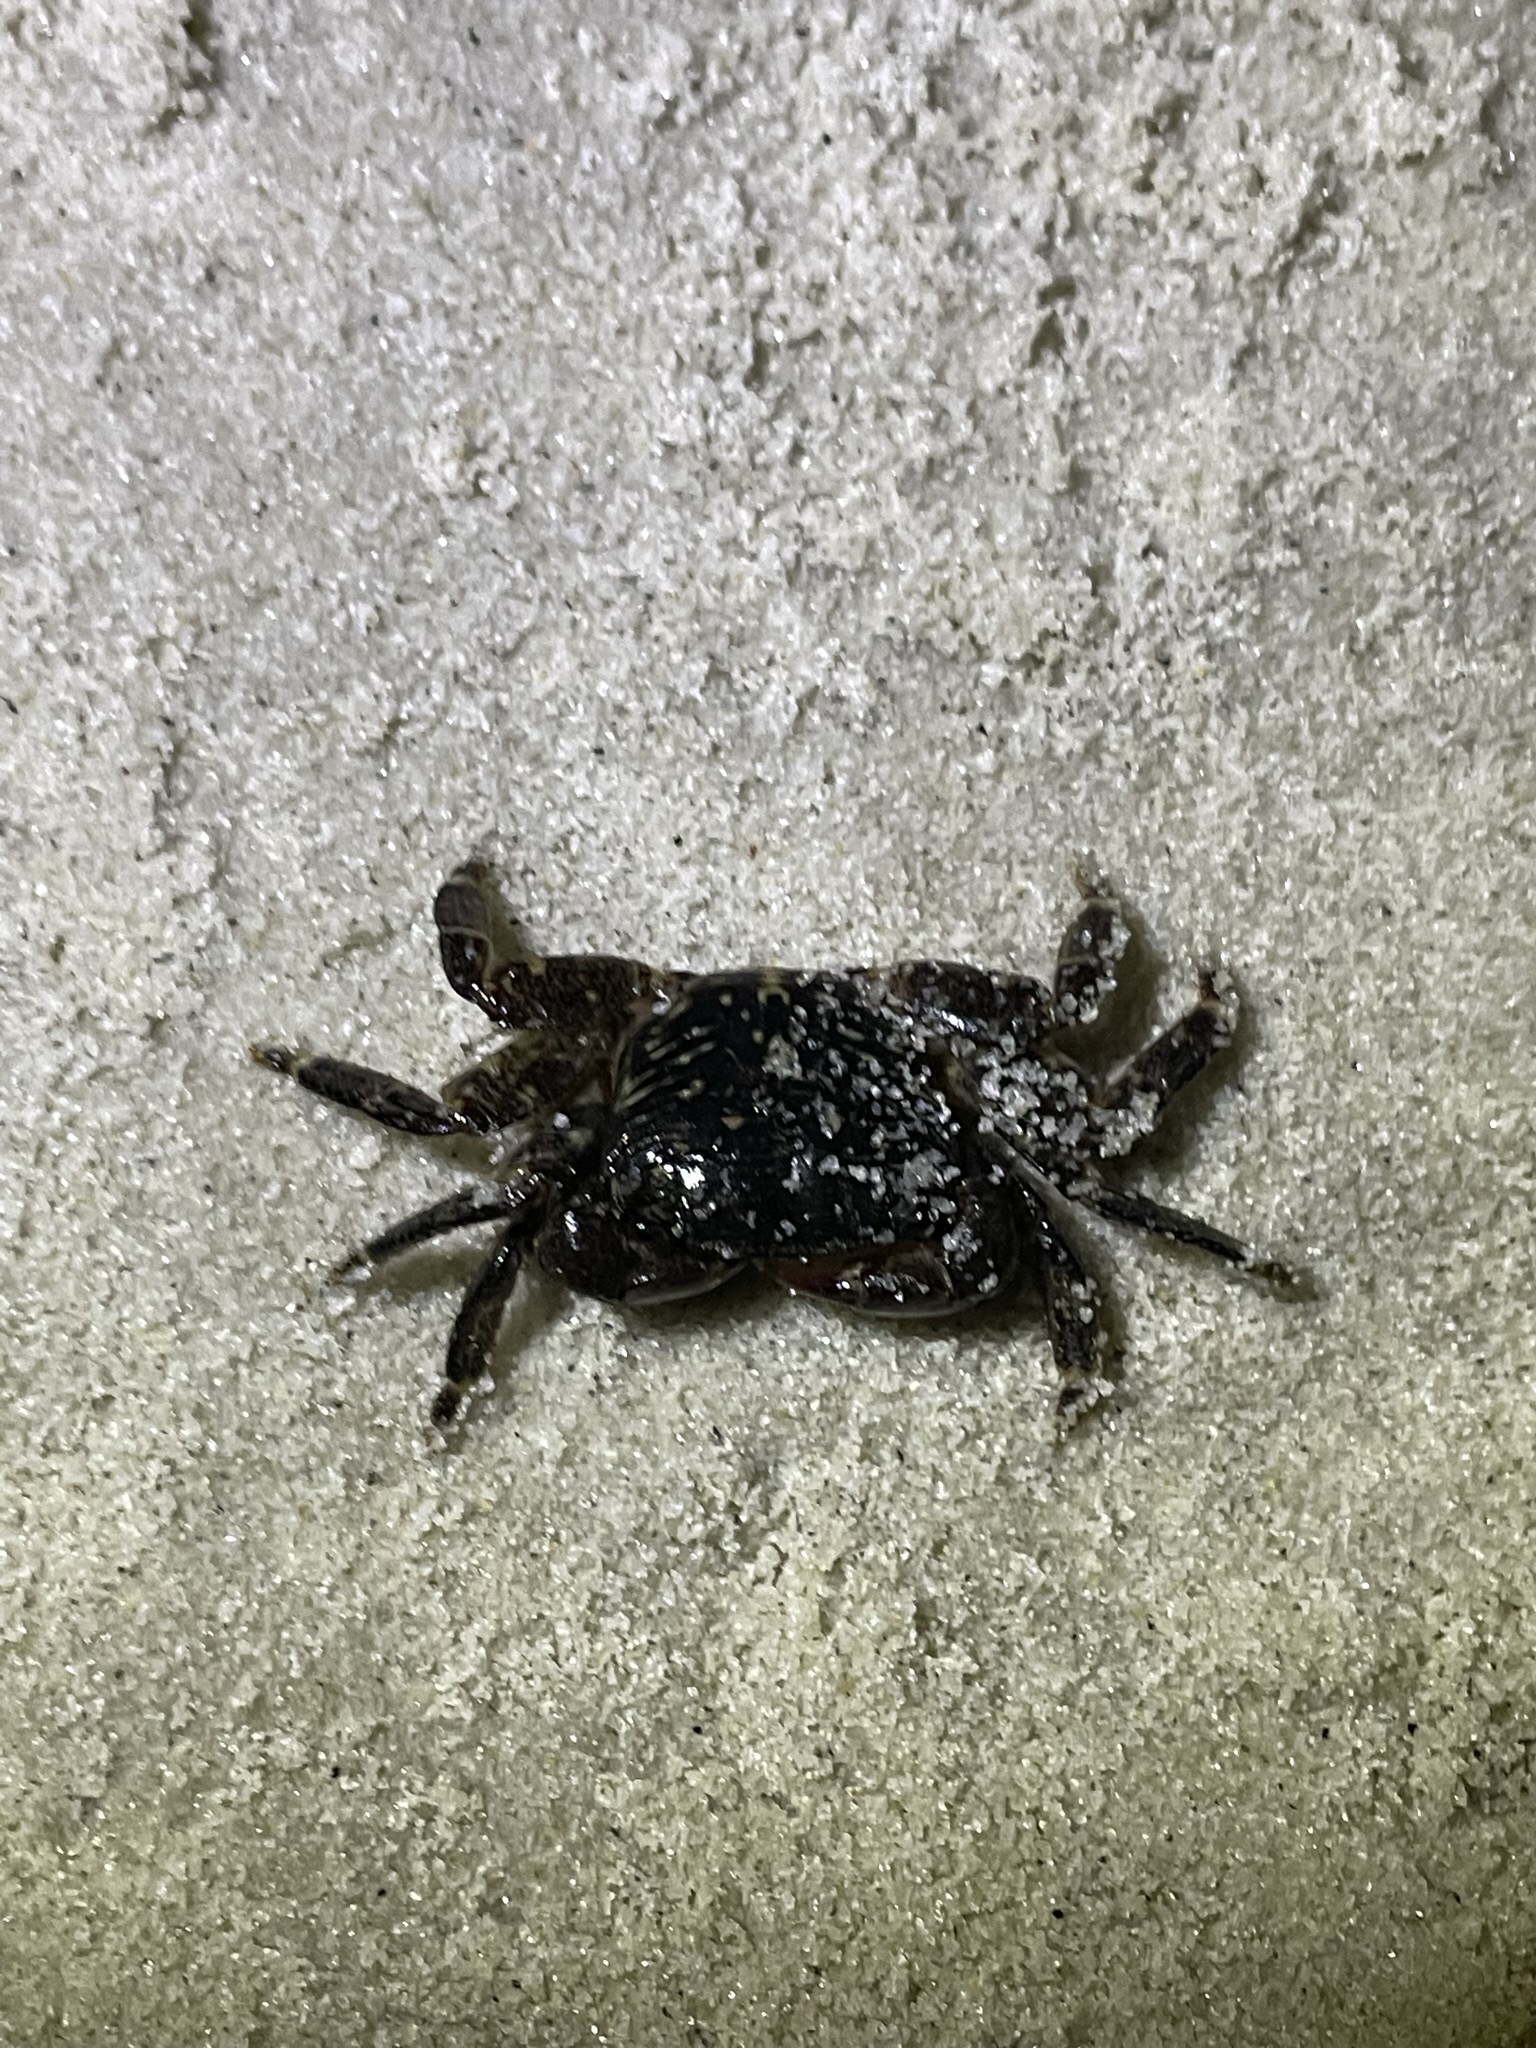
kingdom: Animalia
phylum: Arthropoda
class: Malacostraca
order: Decapoda
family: Grapsidae
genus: Pachygrapsus
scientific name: Pachygrapsus crassipes
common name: Striped shore crab
